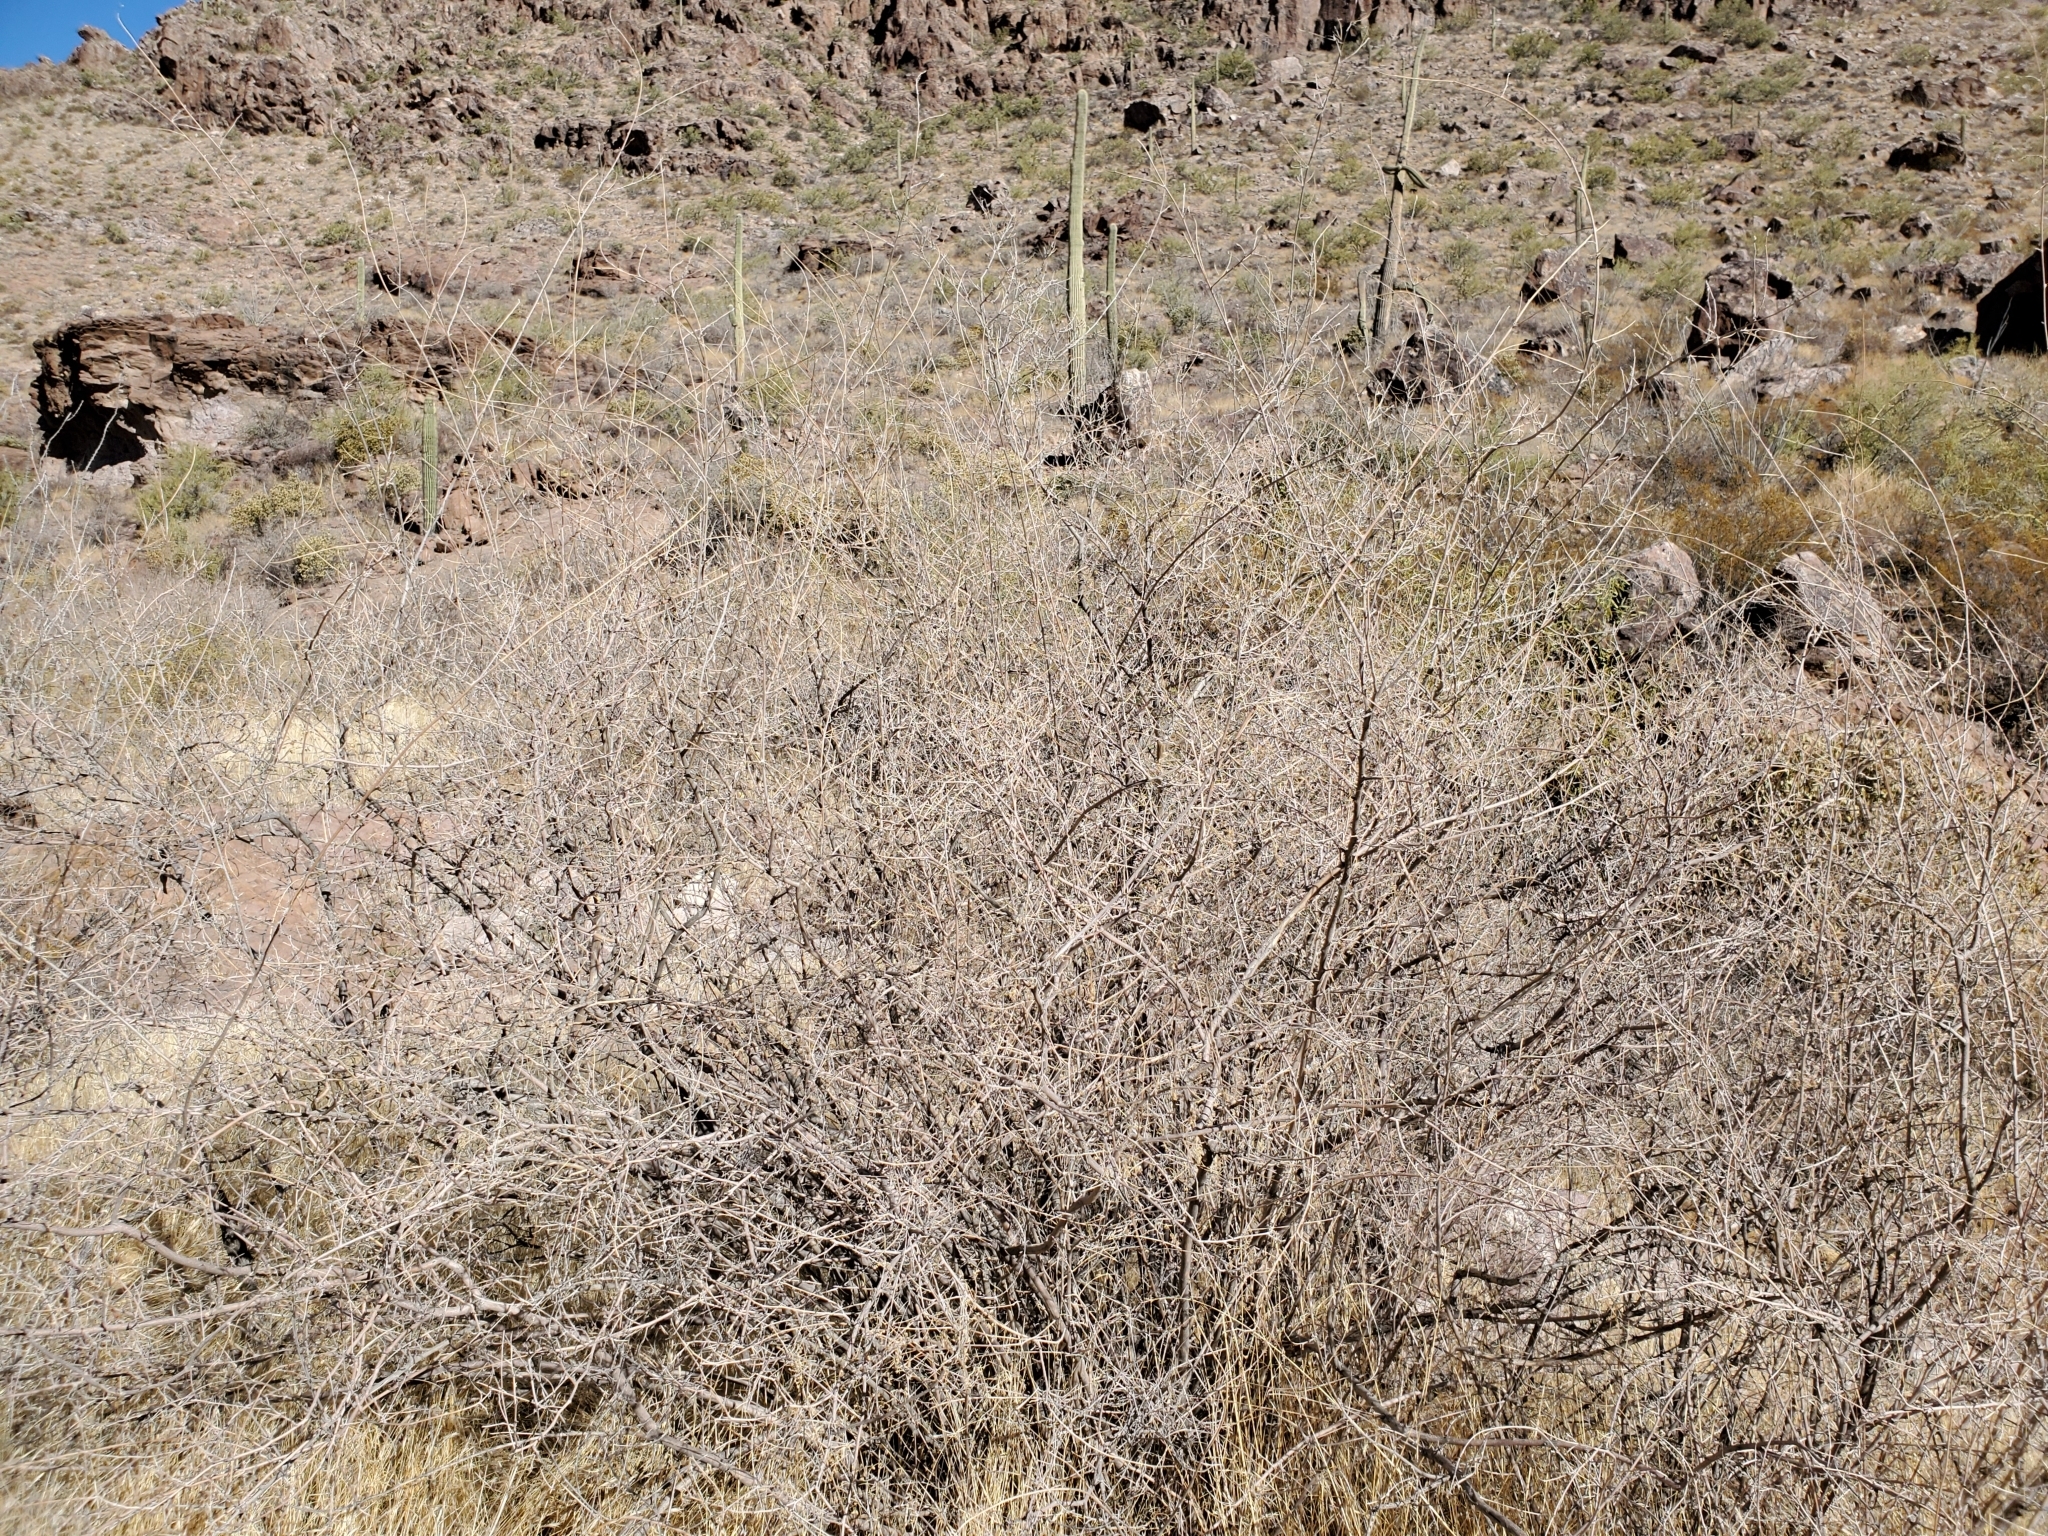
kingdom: Plantae
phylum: Tracheophyta
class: Magnoliopsida
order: Sapindales
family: Sapindaceae
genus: Sapindus
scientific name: Sapindus drummondii
